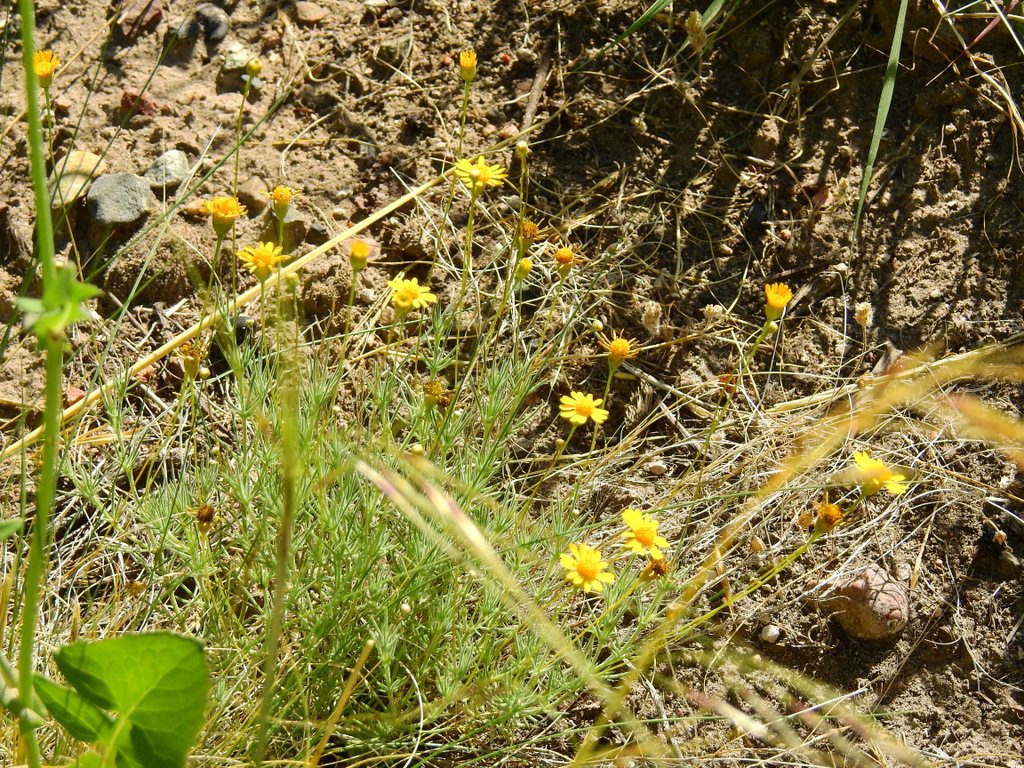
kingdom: Plantae
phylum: Tracheophyta
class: Magnoliopsida
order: Asterales
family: Asteraceae
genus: Thymophylla
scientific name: Thymophylla pentachaeta
